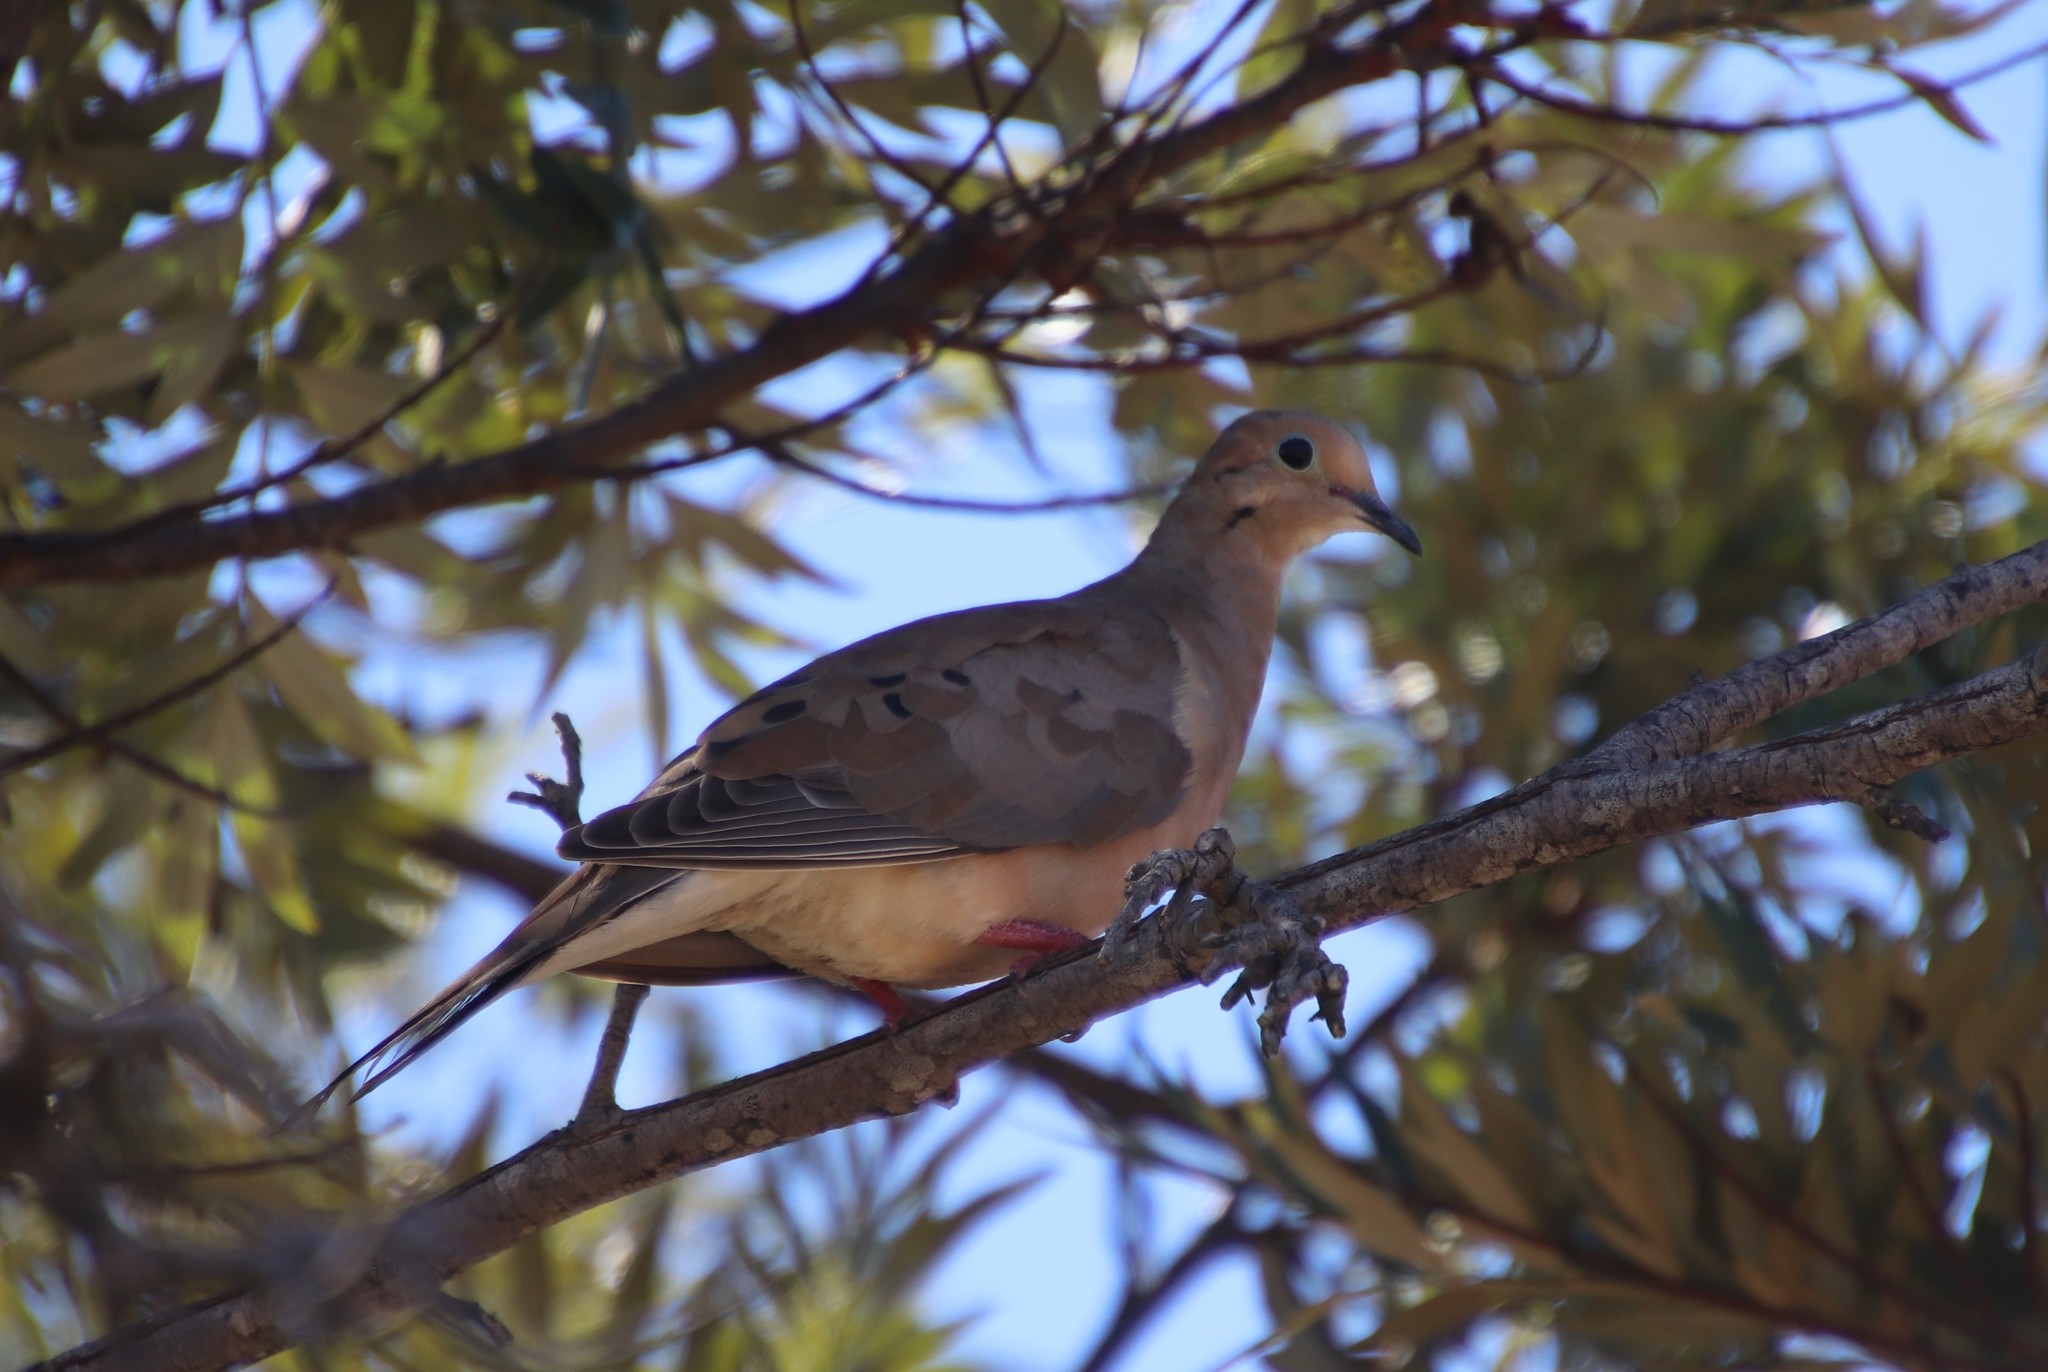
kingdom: Animalia
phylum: Chordata
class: Aves
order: Columbiformes
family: Columbidae
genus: Zenaida
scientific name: Zenaida macroura
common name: Mourning dove
